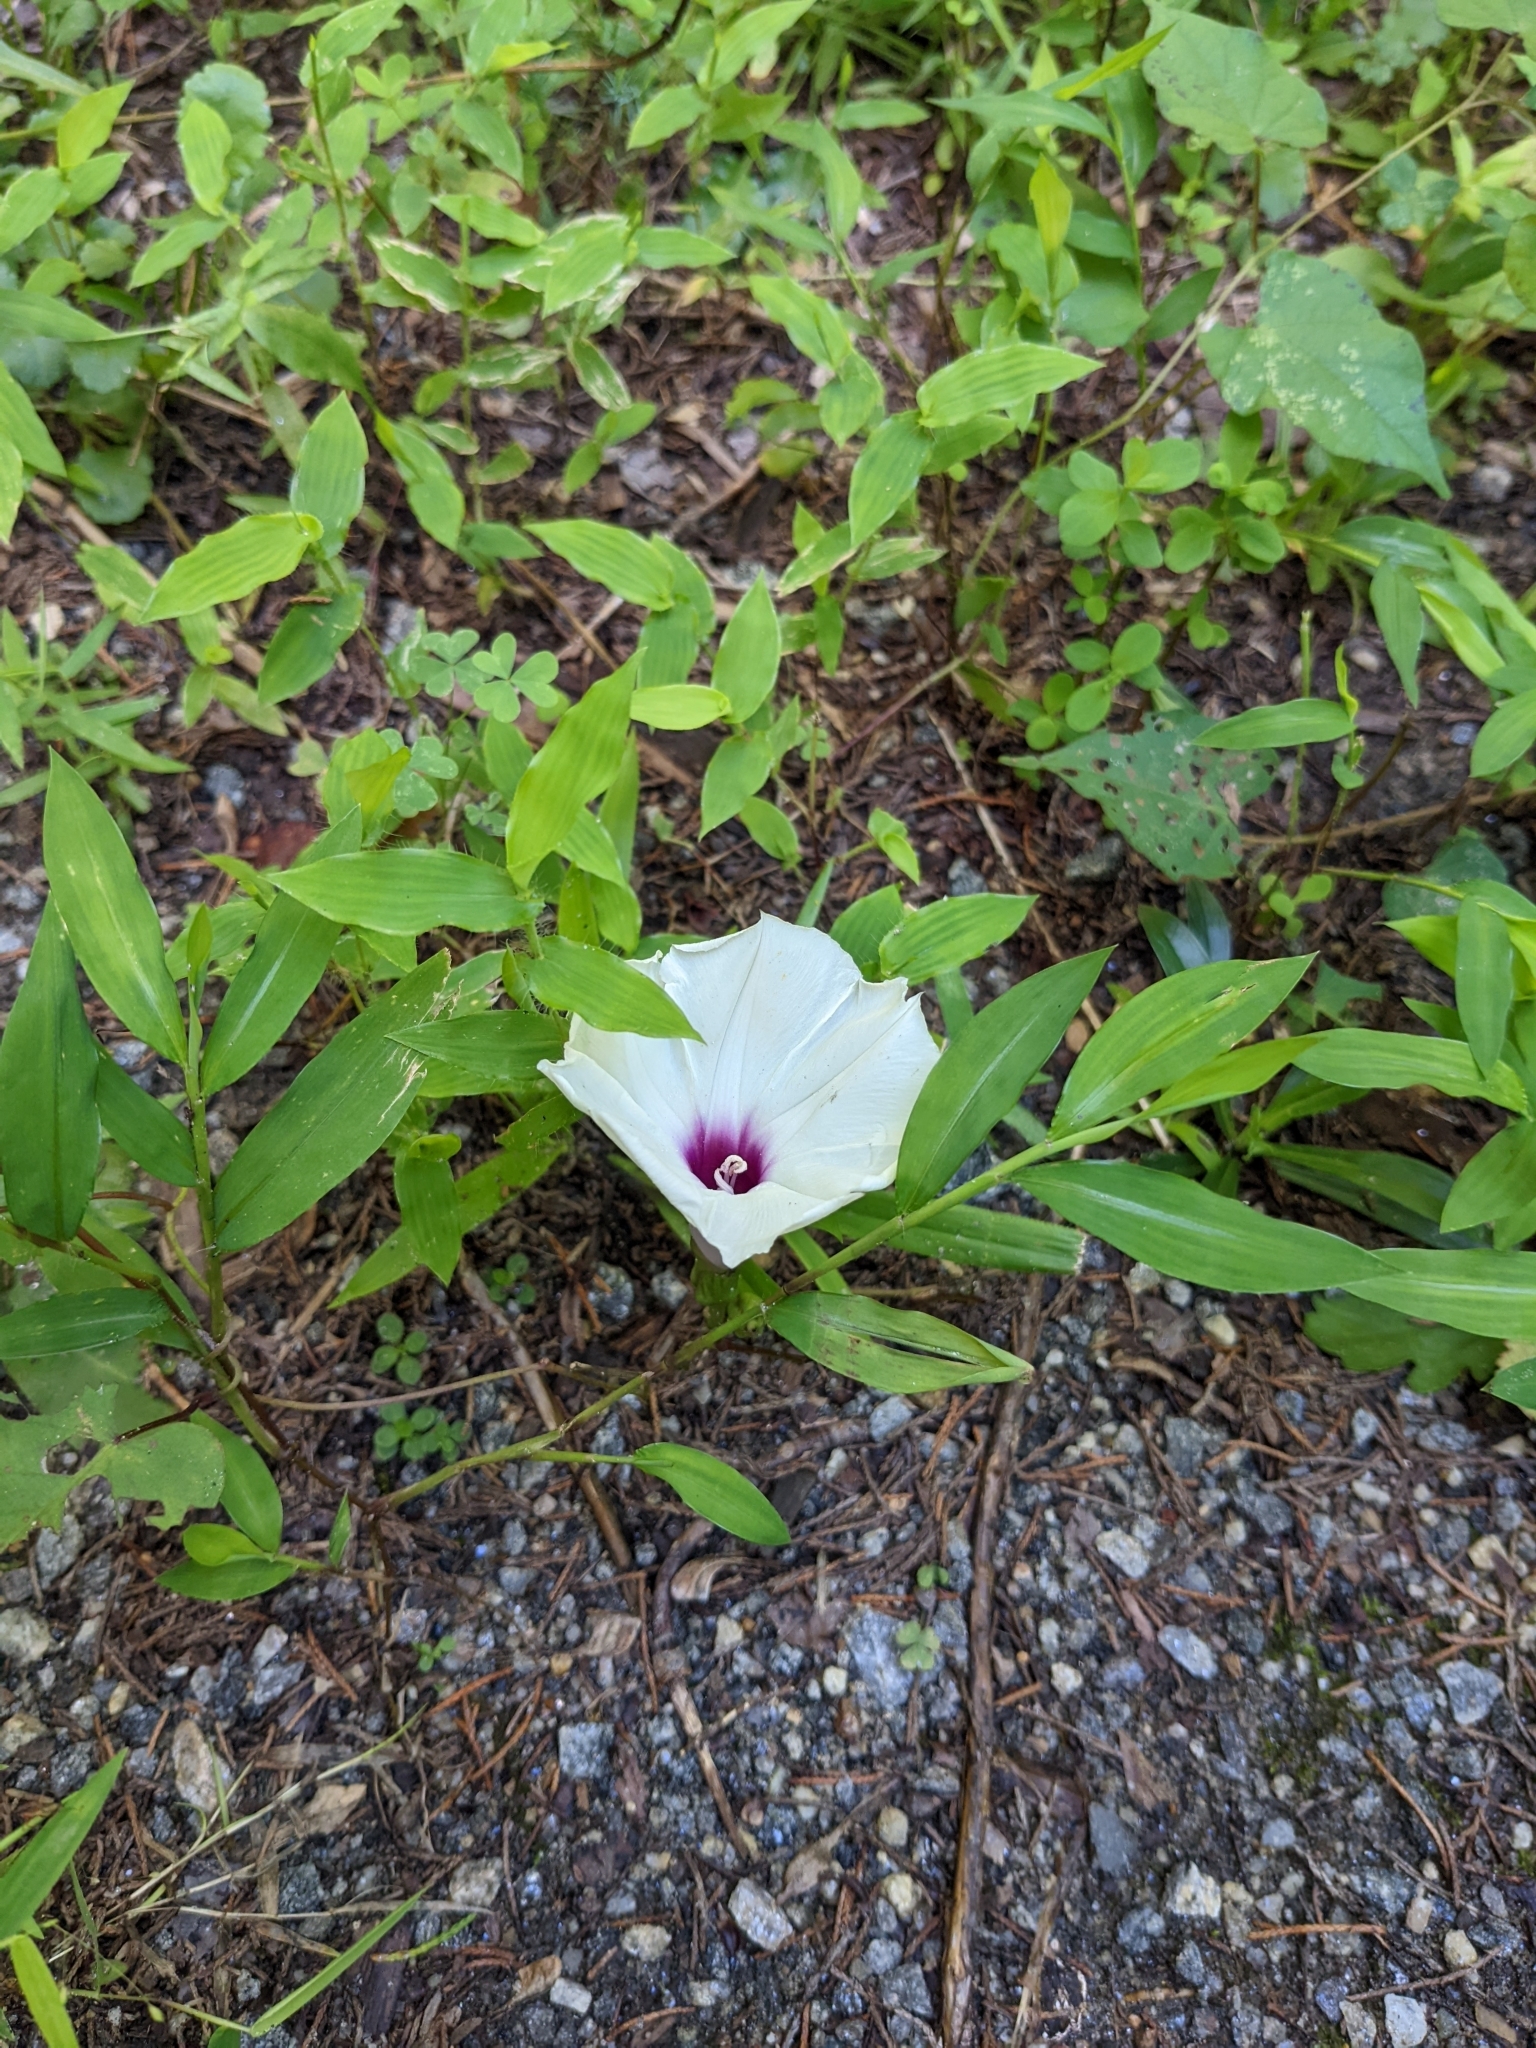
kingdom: Plantae
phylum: Tracheophyta
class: Magnoliopsida
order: Solanales
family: Convolvulaceae
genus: Ipomoea
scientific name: Ipomoea pandurata
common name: Man-of-the-earth
